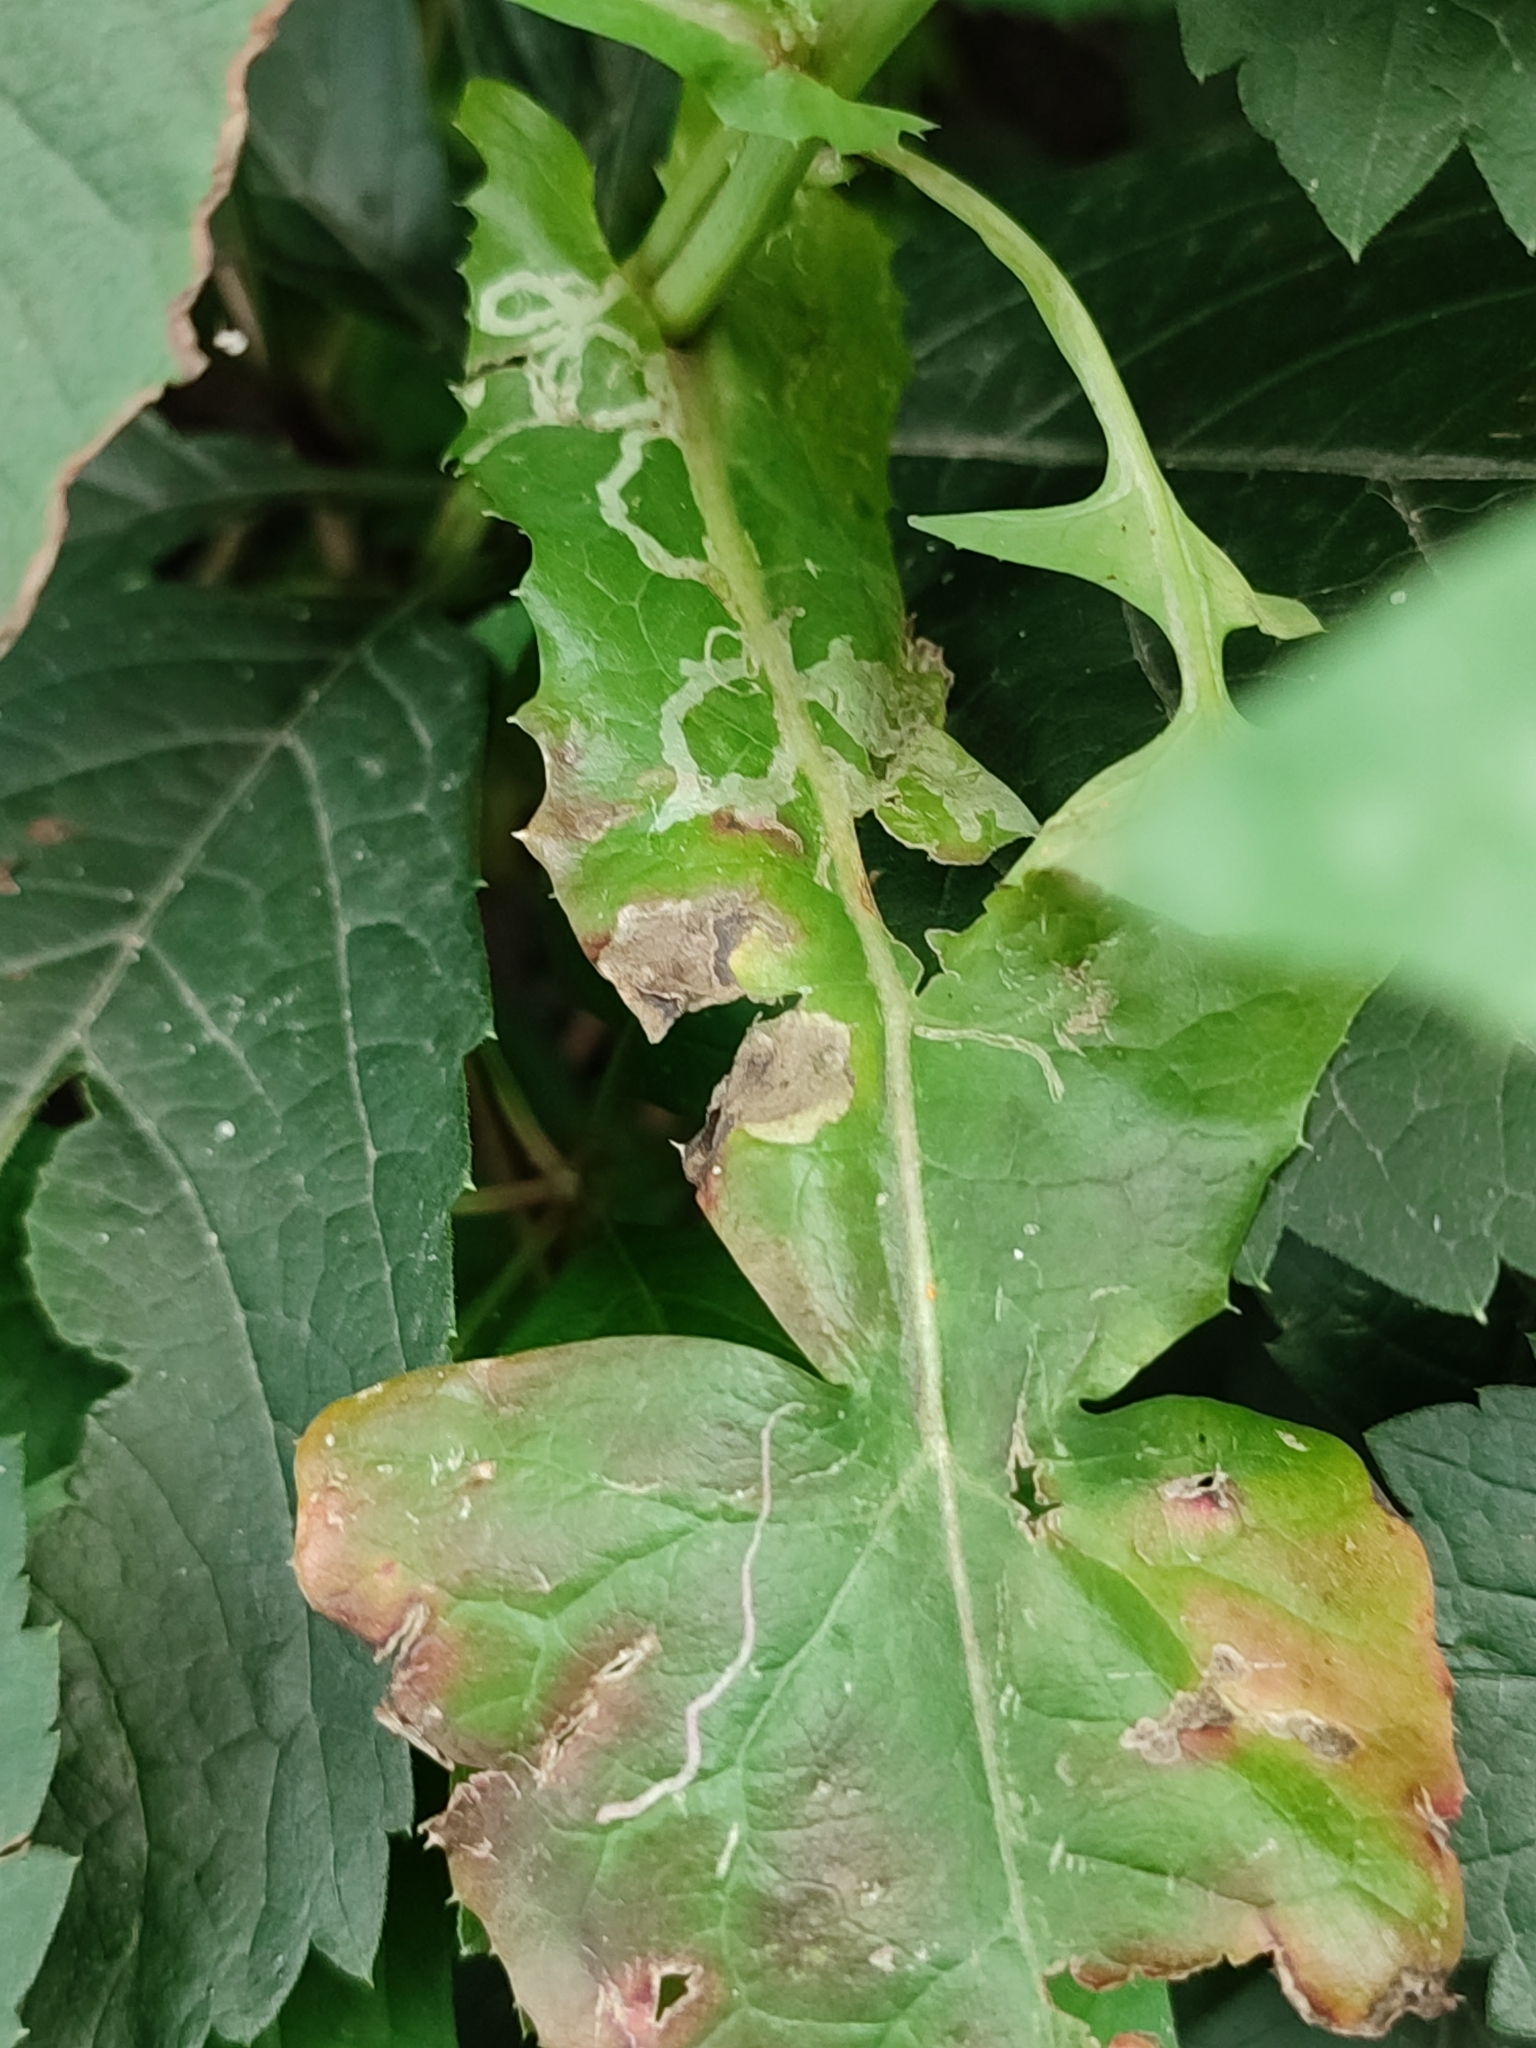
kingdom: Plantae
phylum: Tracheophyta
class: Magnoliopsida
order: Asterales
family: Asteraceae
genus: Sonchus
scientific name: Sonchus oleraceus
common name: Common sowthistle
